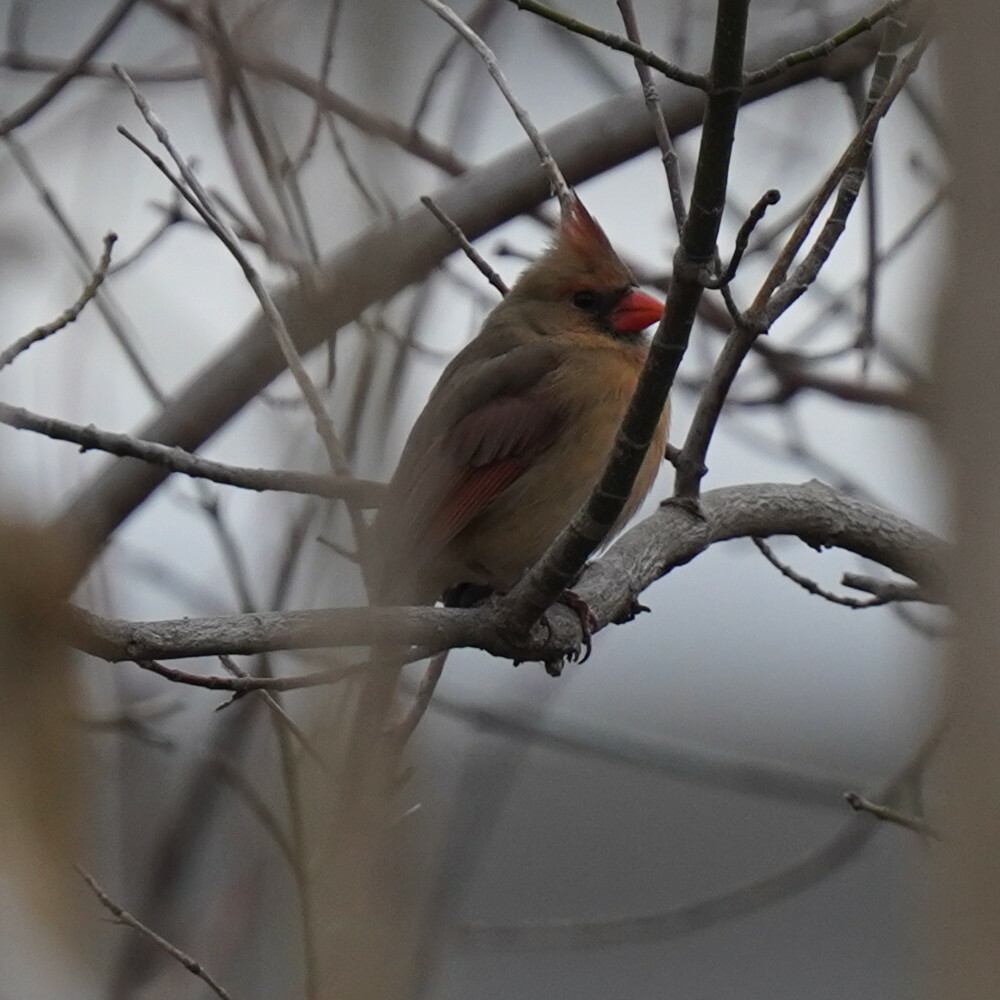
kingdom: Animalia
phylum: Chordata
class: Aves
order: Passeriformes
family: Cardinalidae
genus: Cardinalis
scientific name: Cardinalis cardinalis
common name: Northern cardinal
